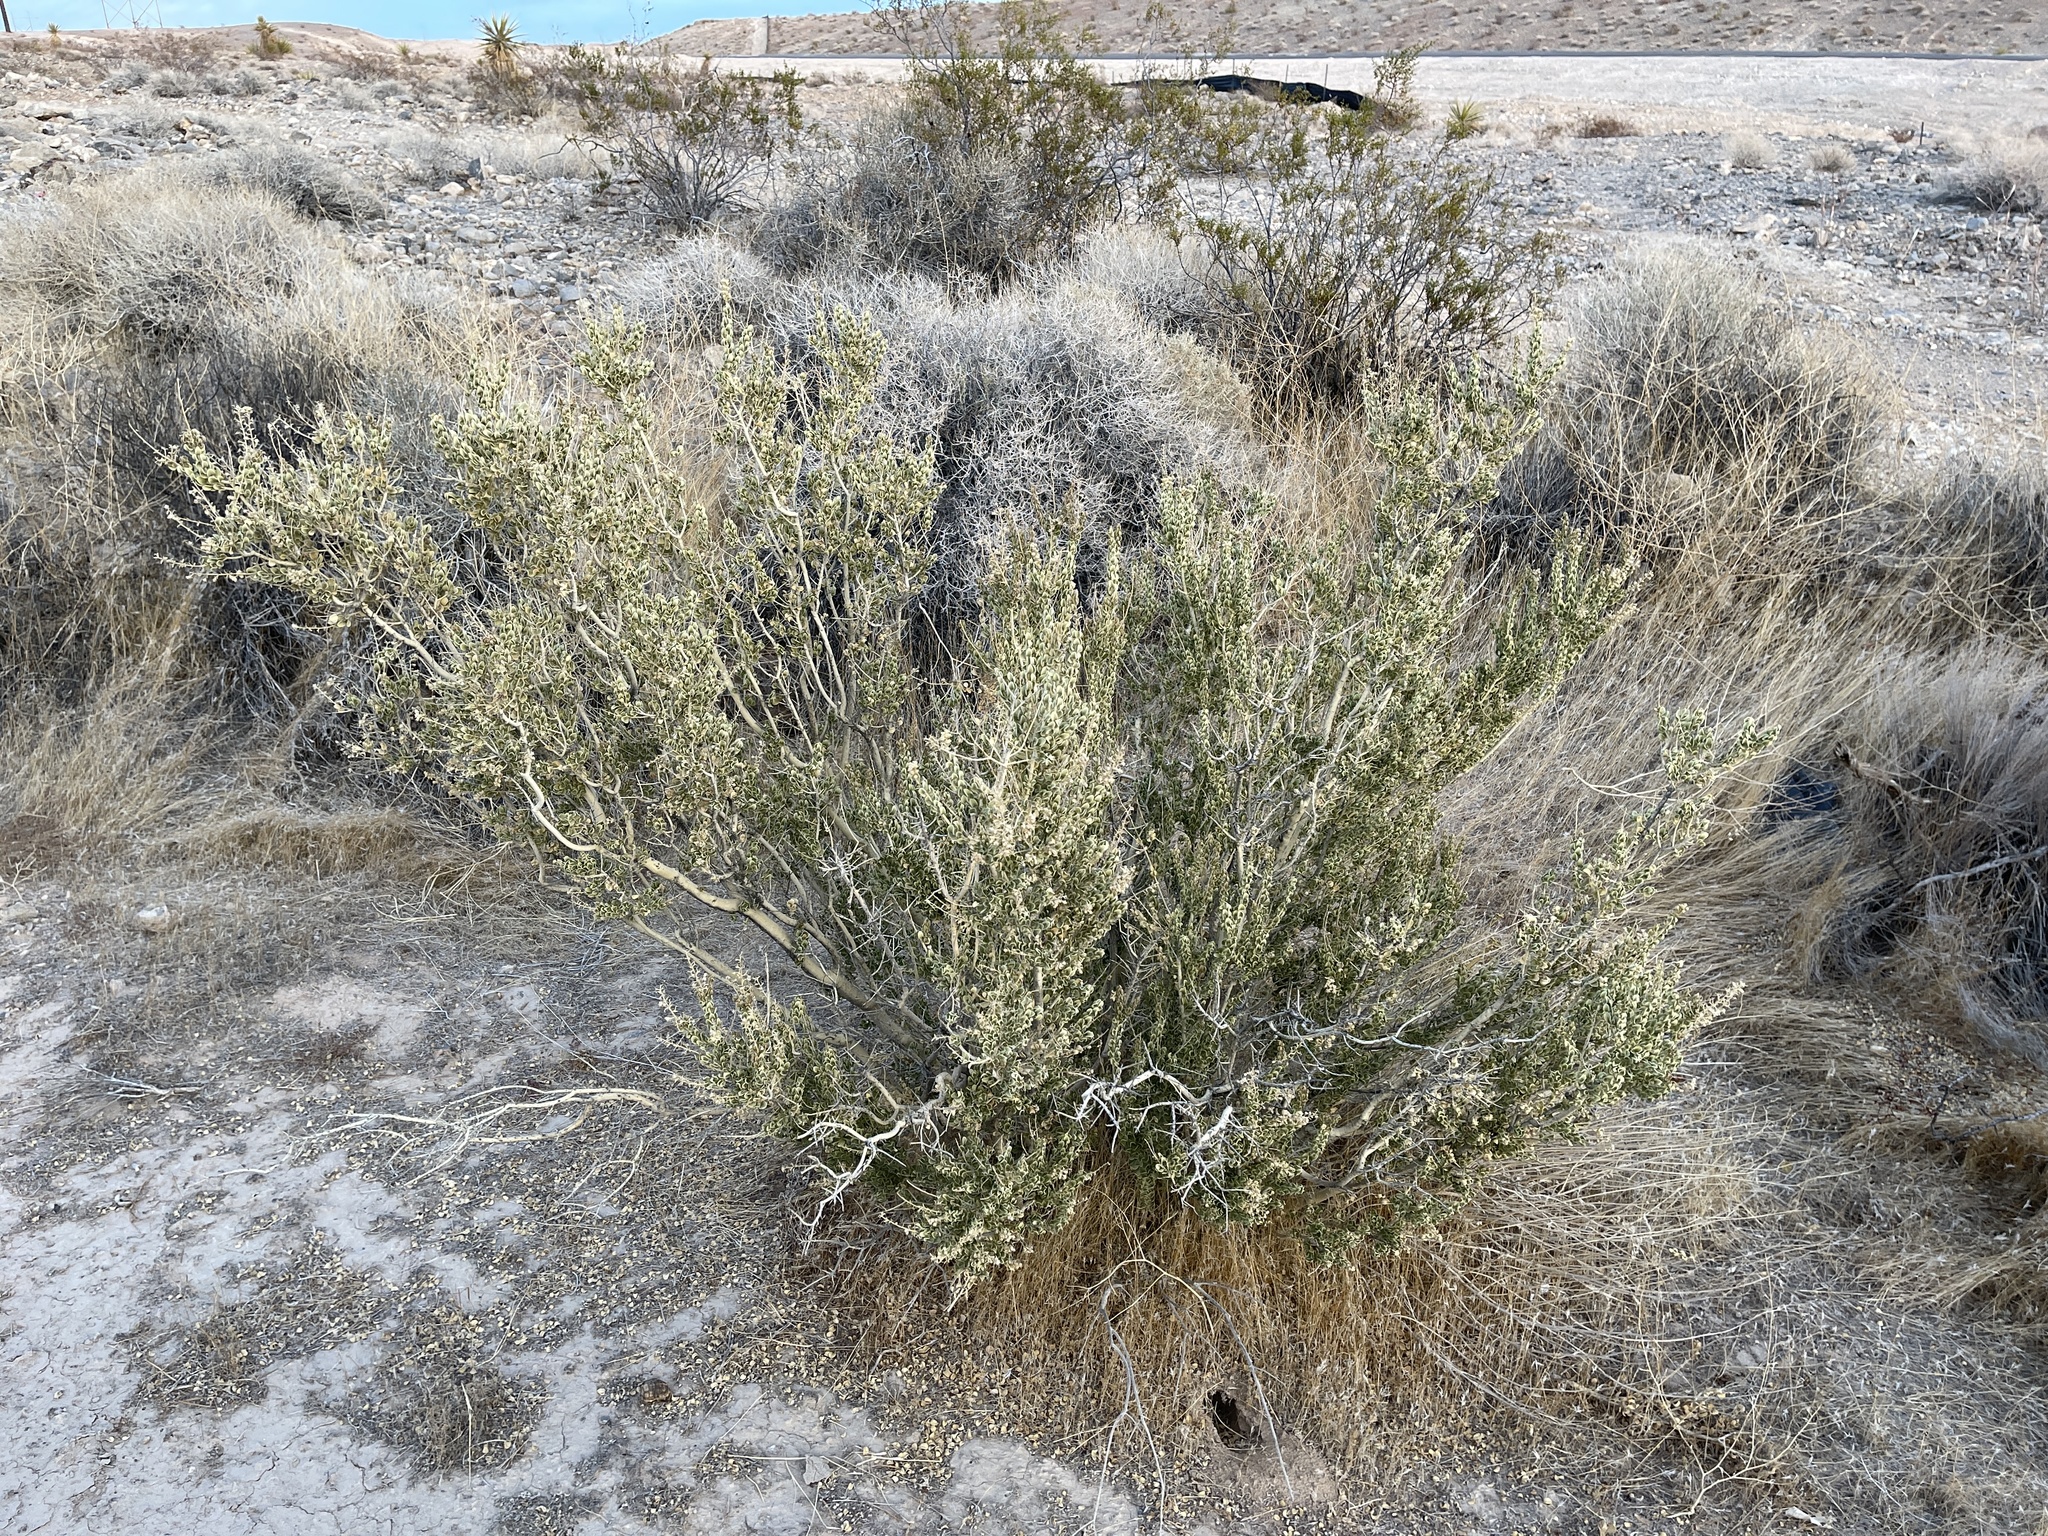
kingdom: Plantae
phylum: Tracheophyta
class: Magnoliopsida
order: Celastrales
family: Celastraceae
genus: Mortonia
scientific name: Mortonia utahensis
